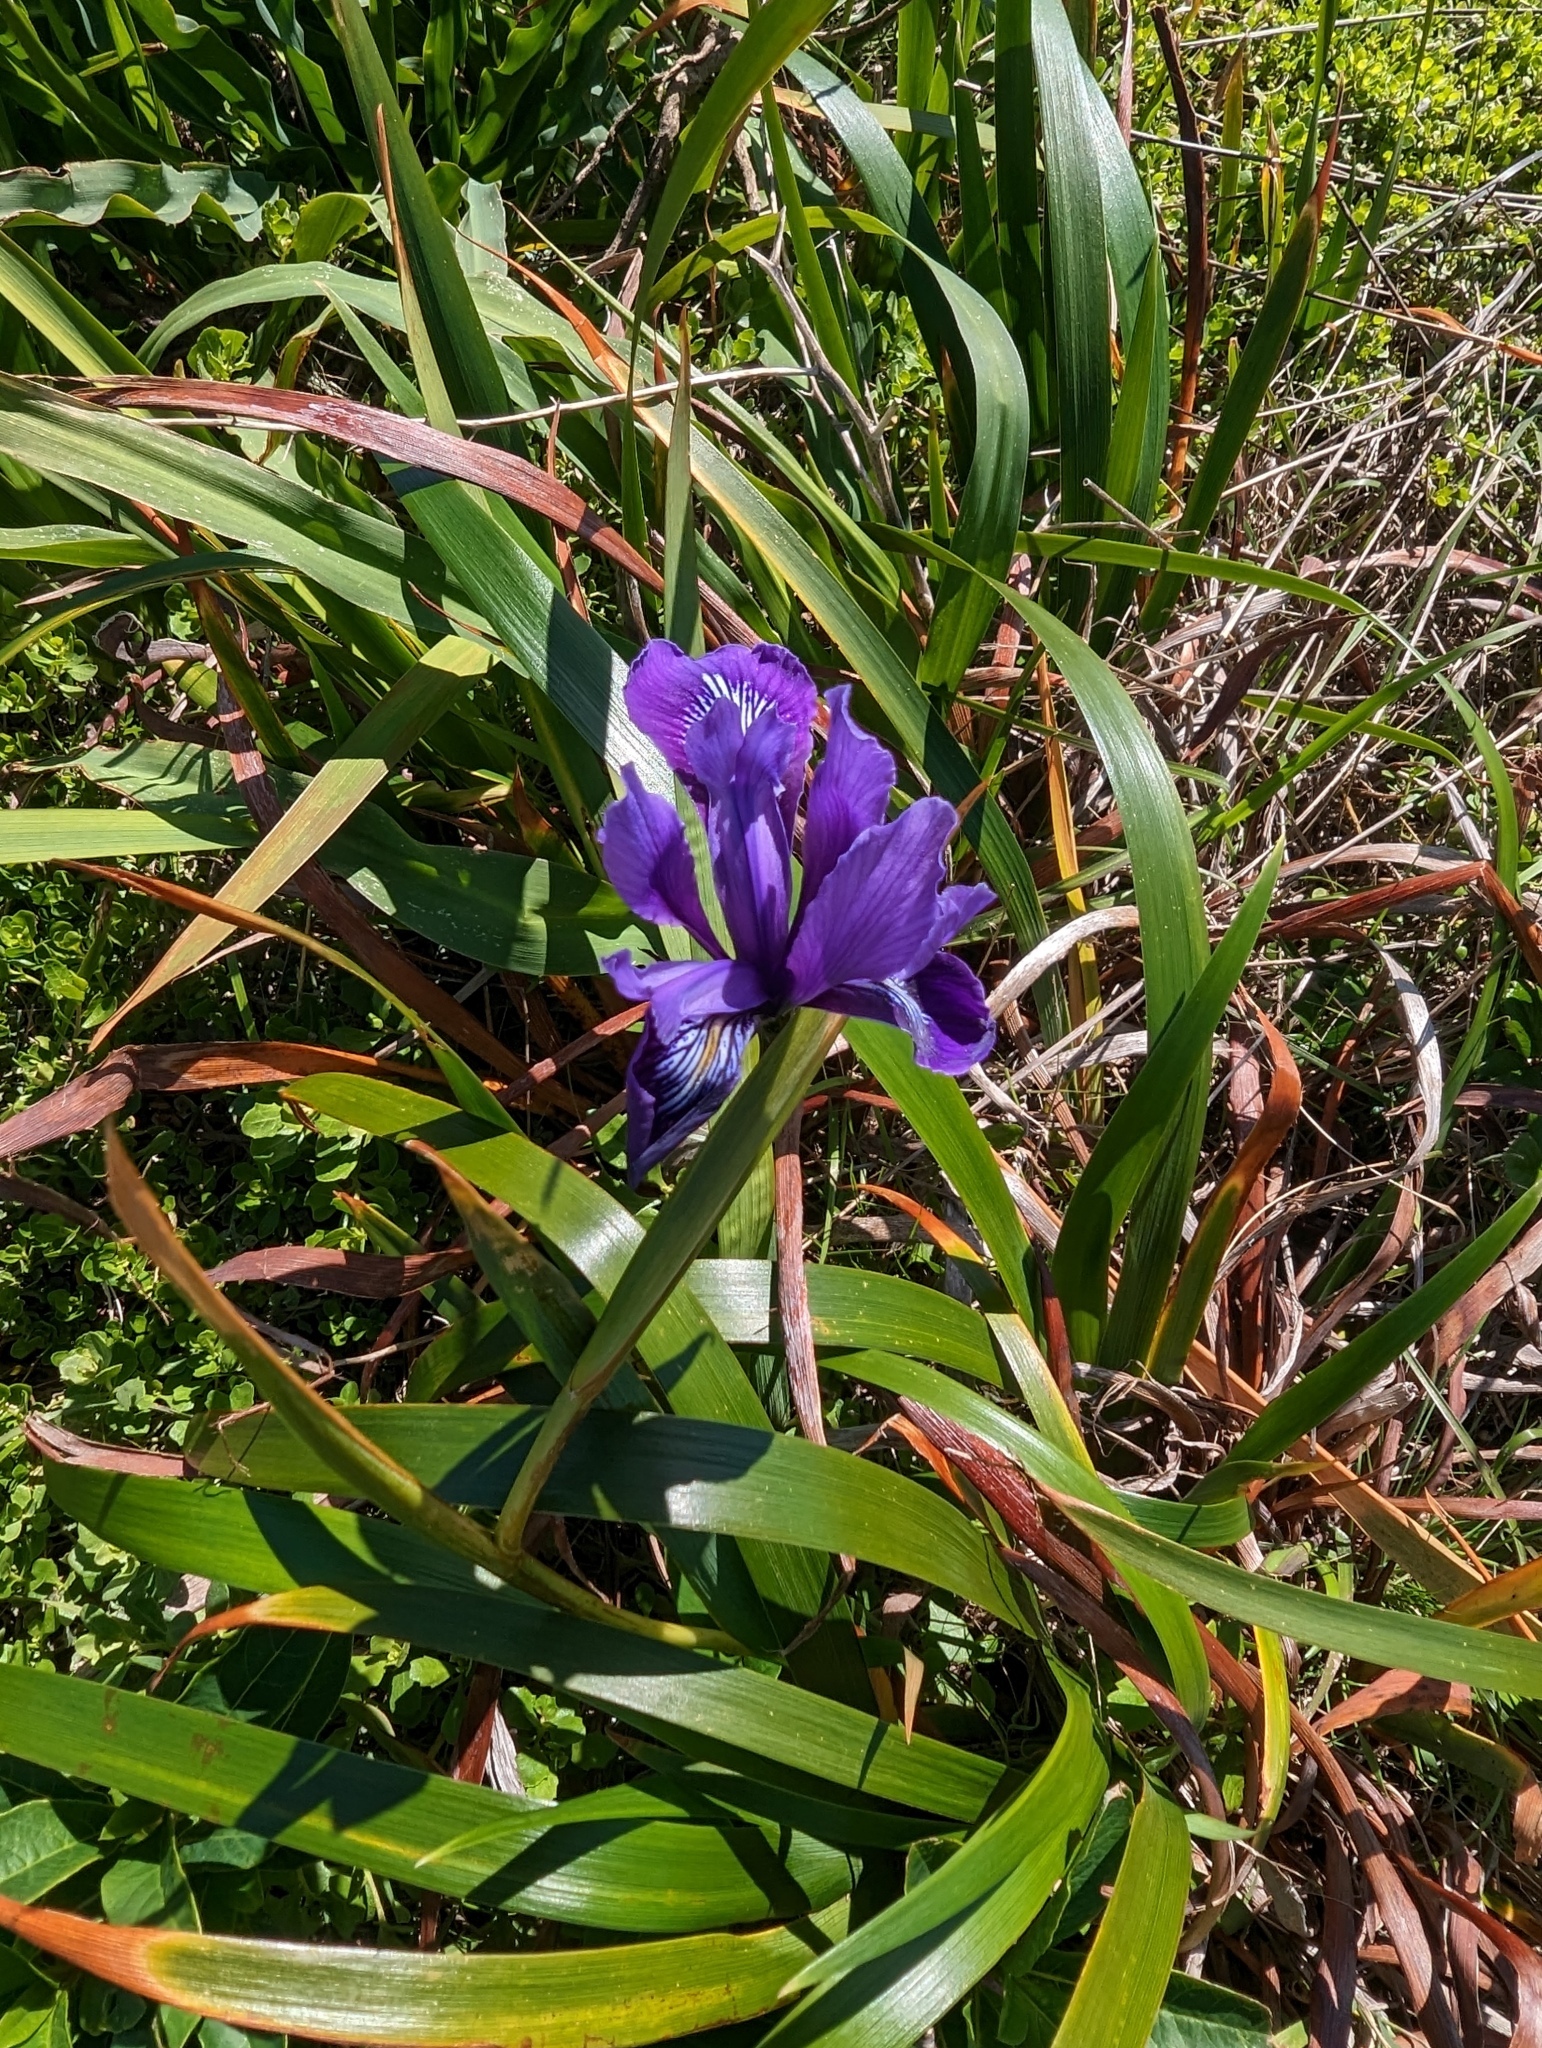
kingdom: Plantae
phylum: Tracheophyta
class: Liliopsida
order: Asparagales
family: Iridaceae
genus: Iris
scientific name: Iris douglasiana
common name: Marin iris
